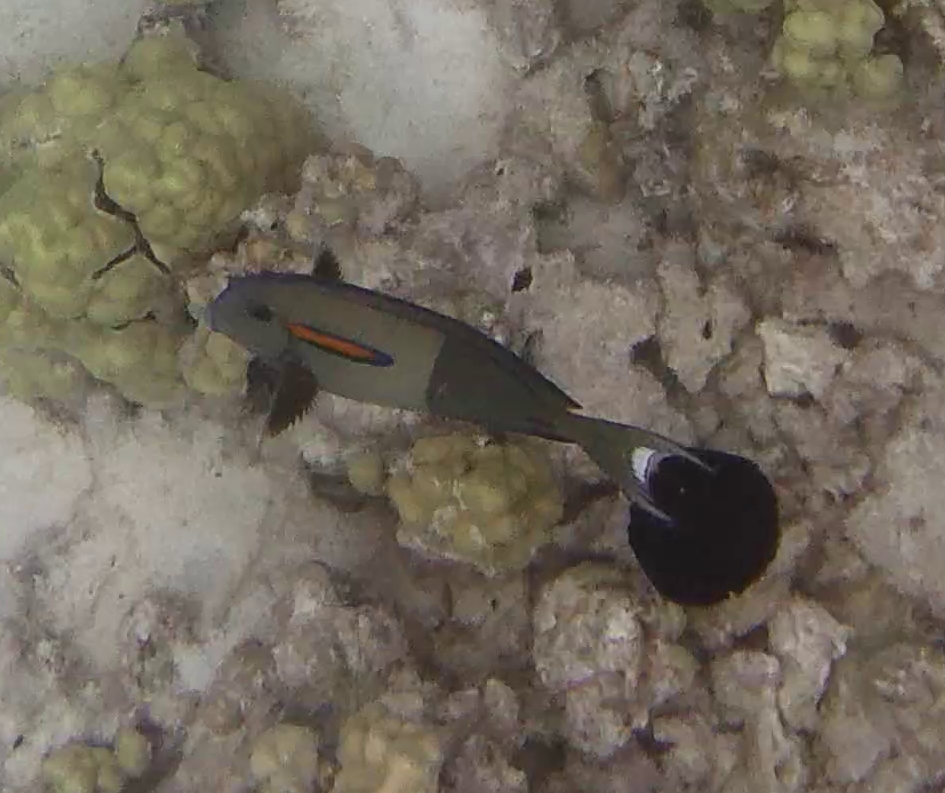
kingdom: Animalia
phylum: Chordata
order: Perciformes
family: Acanthuridae
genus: Acanthurus
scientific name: Acanthurus olivaceus
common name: Gendarme fish
